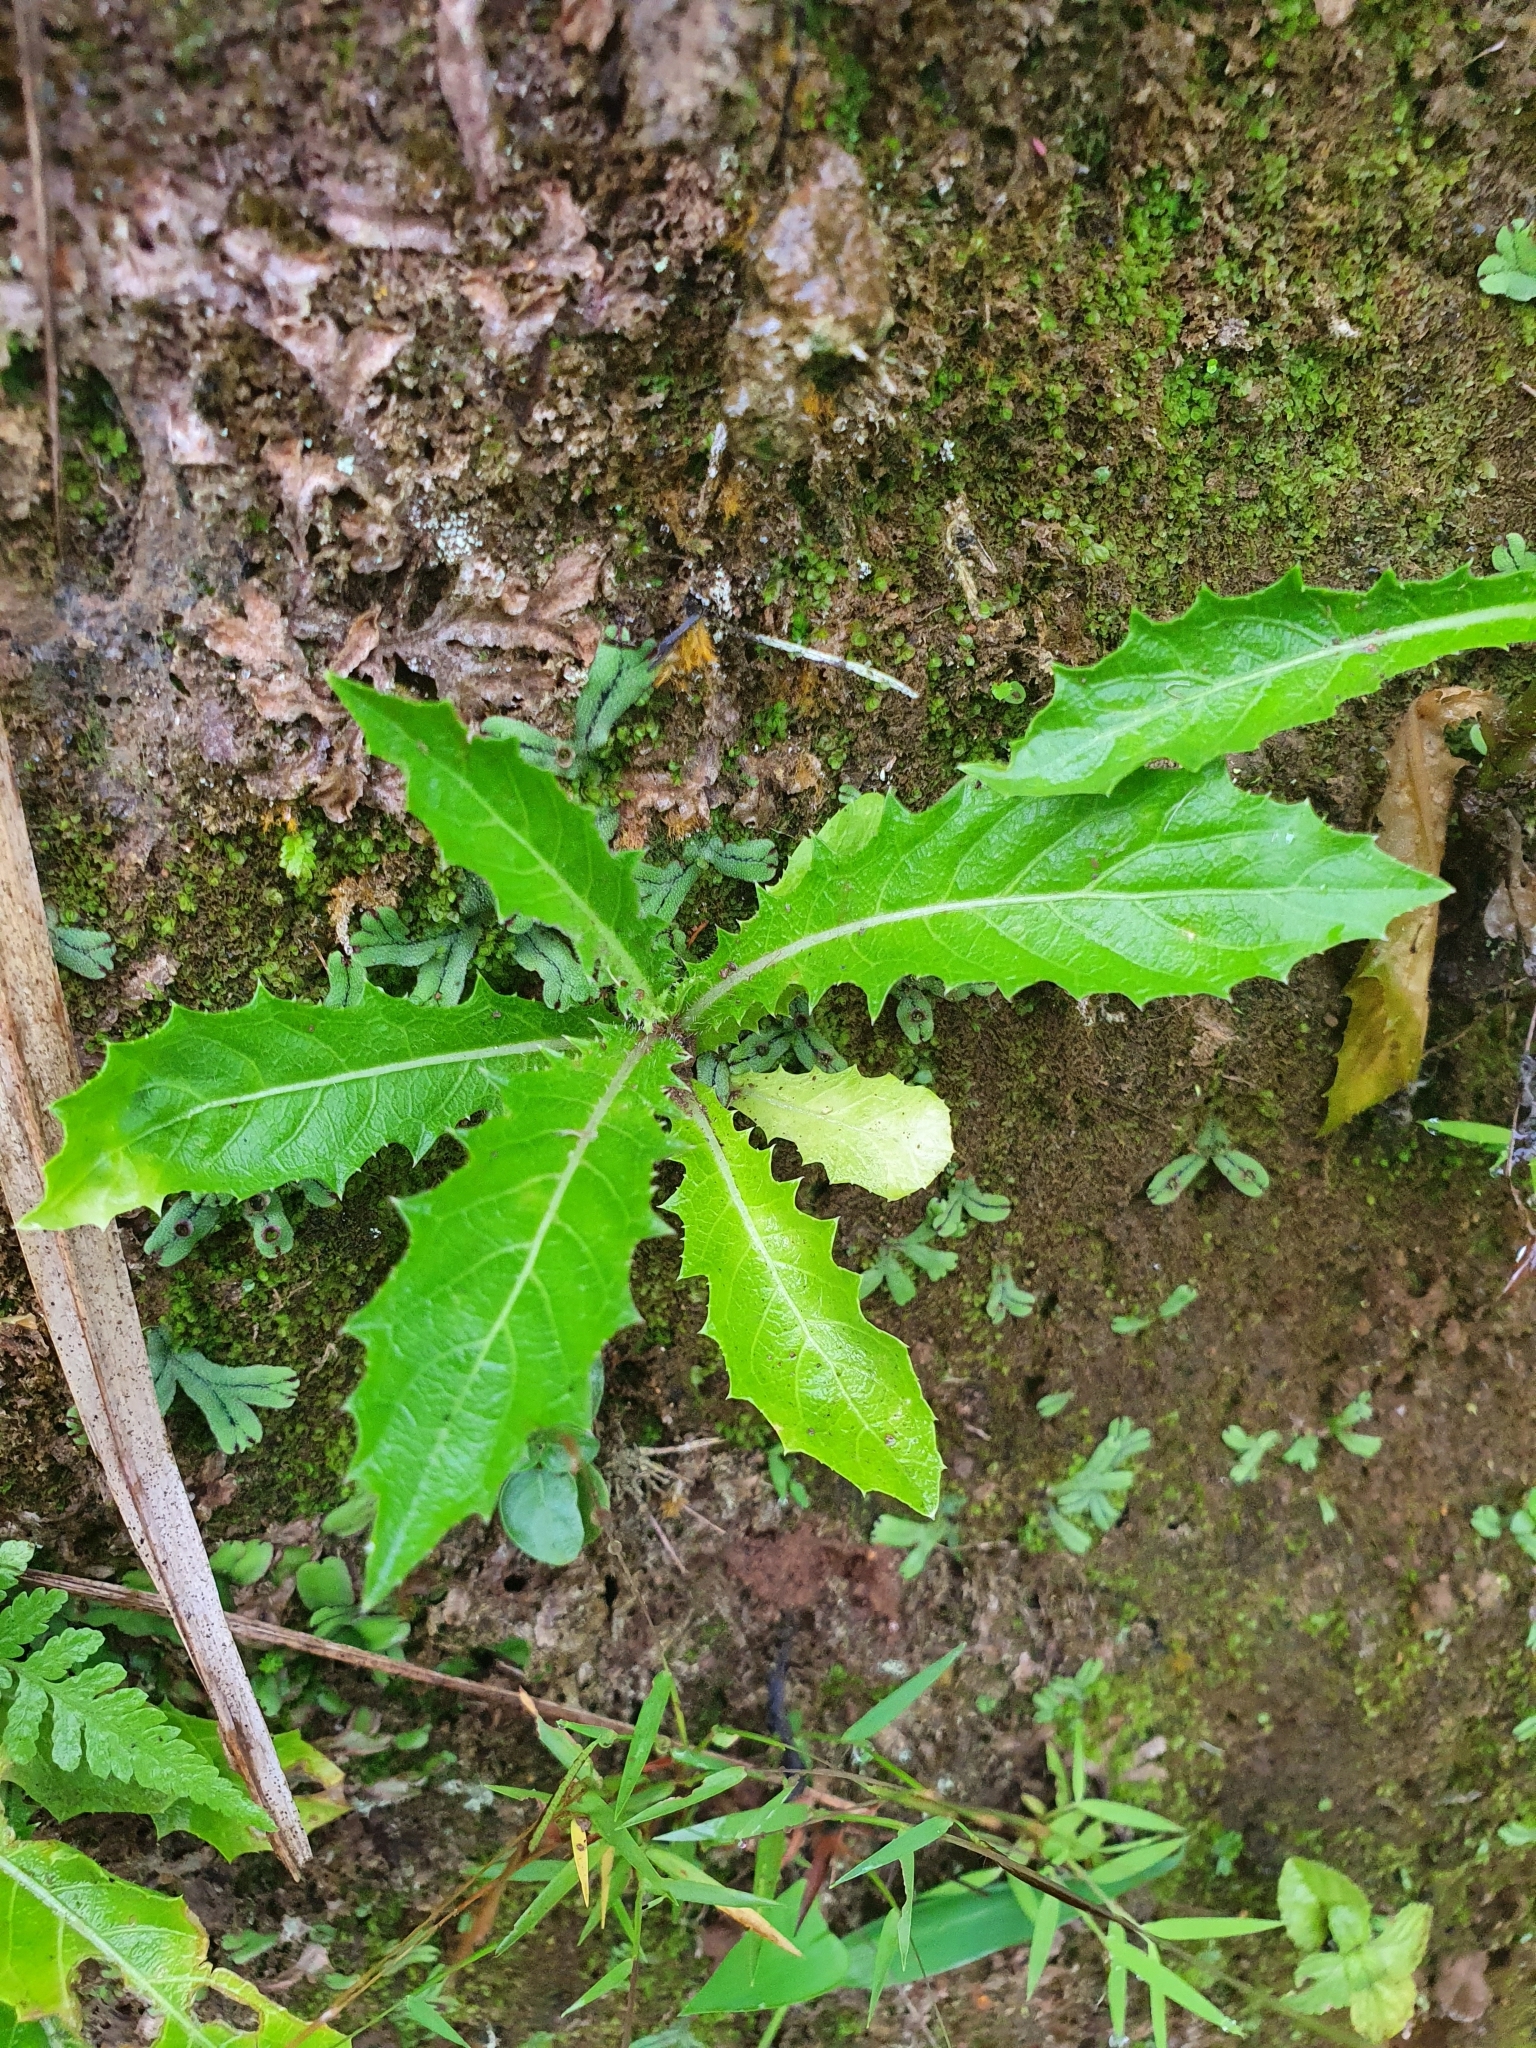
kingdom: Plantae
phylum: Tracheophyta
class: Magnoliopsida
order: Asterales
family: Campanulaceae
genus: Hippobroma
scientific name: Hippobroma longiflora
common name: Madamfate
